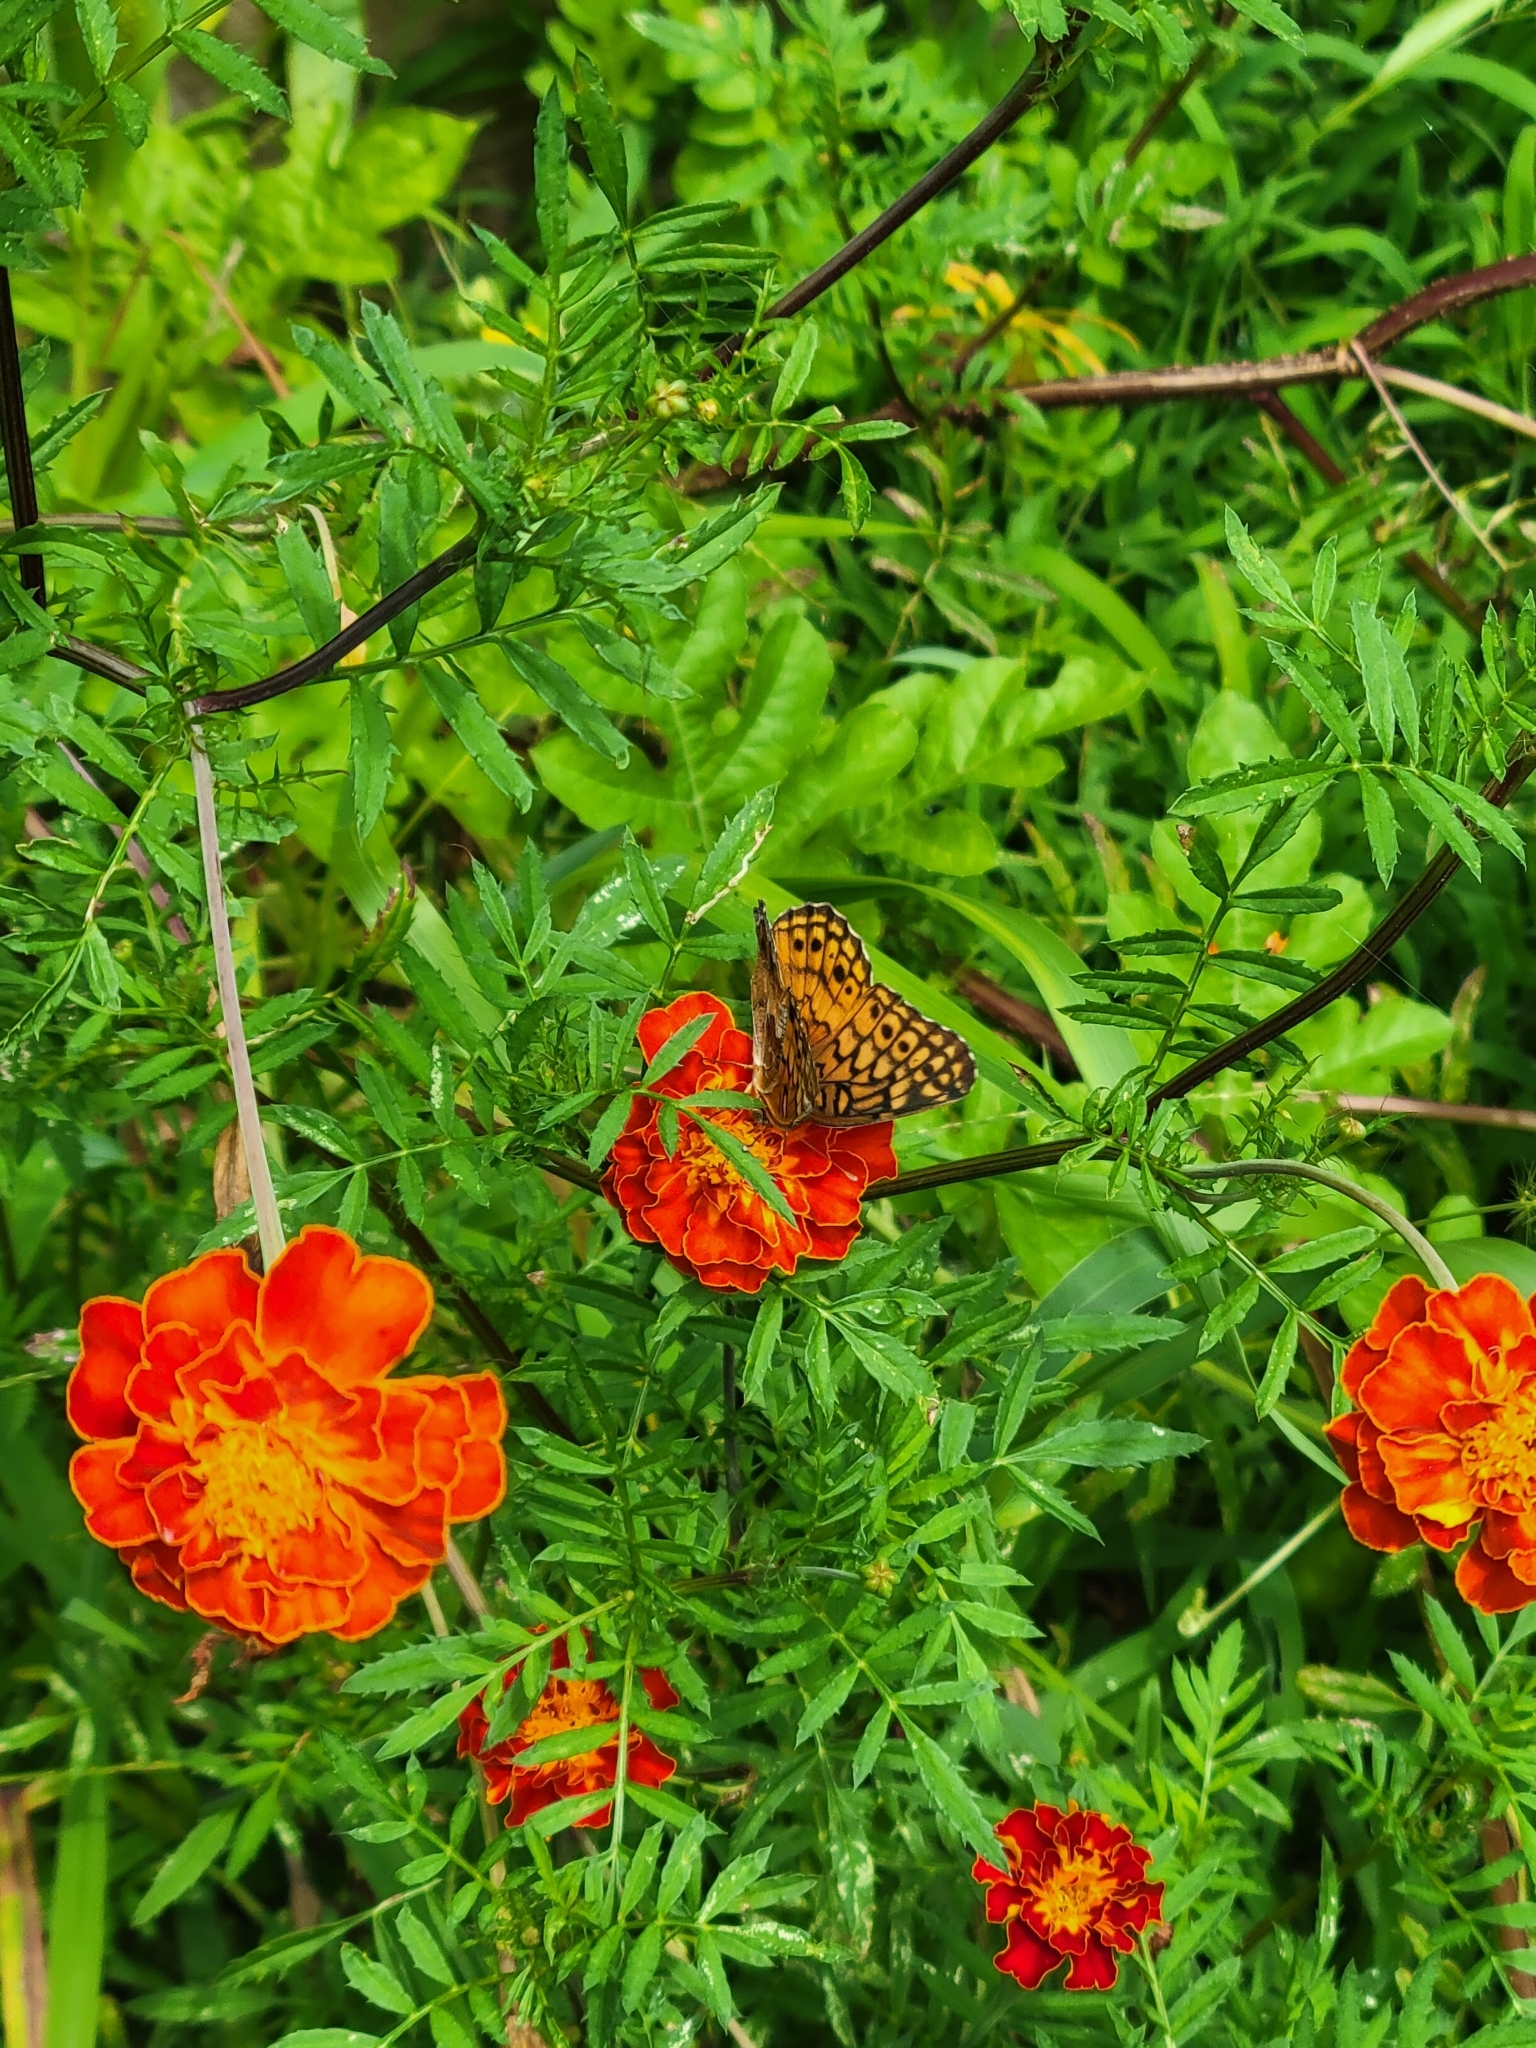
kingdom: Animalia
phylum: Arthropoda
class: Insecta
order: Lepidoptera
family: Nymphalidae
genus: Euptoieta
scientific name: Euptoieta claudia
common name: Variegated fritillary
